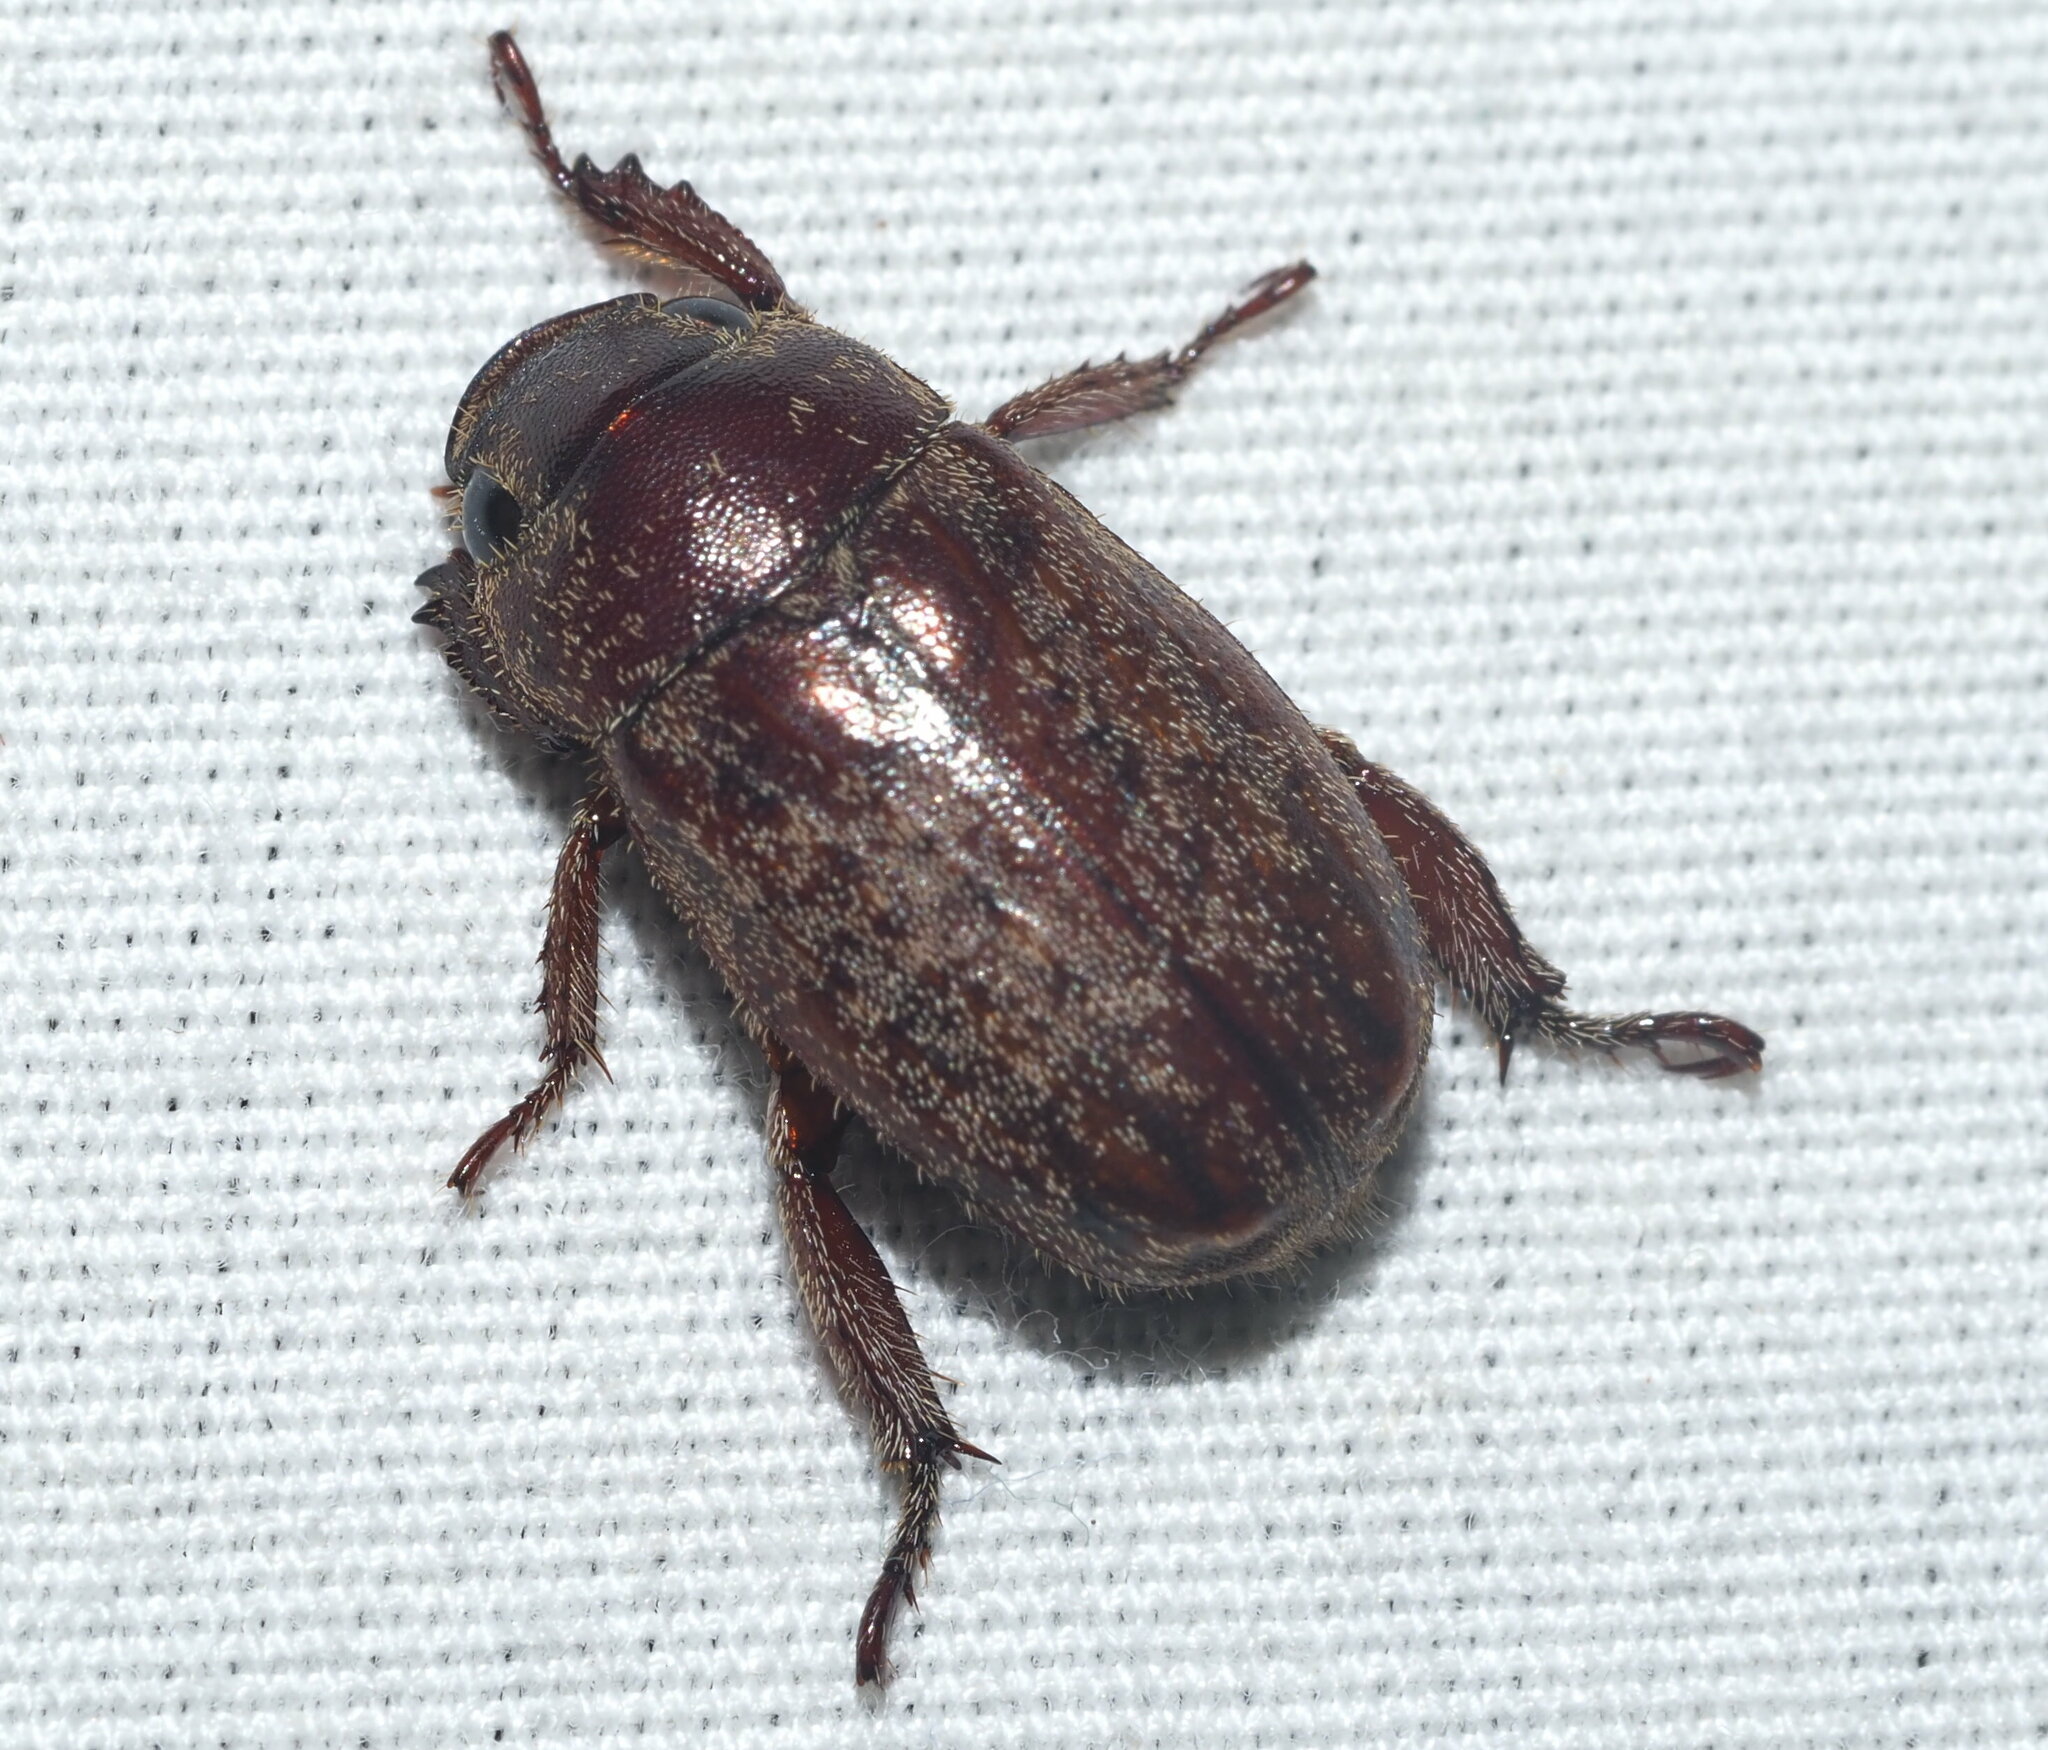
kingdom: Animalia
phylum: Arthropoda
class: Insecta
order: Coleoptera
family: Scarabaeidae
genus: Adoretus
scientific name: Adoretus sinicus
